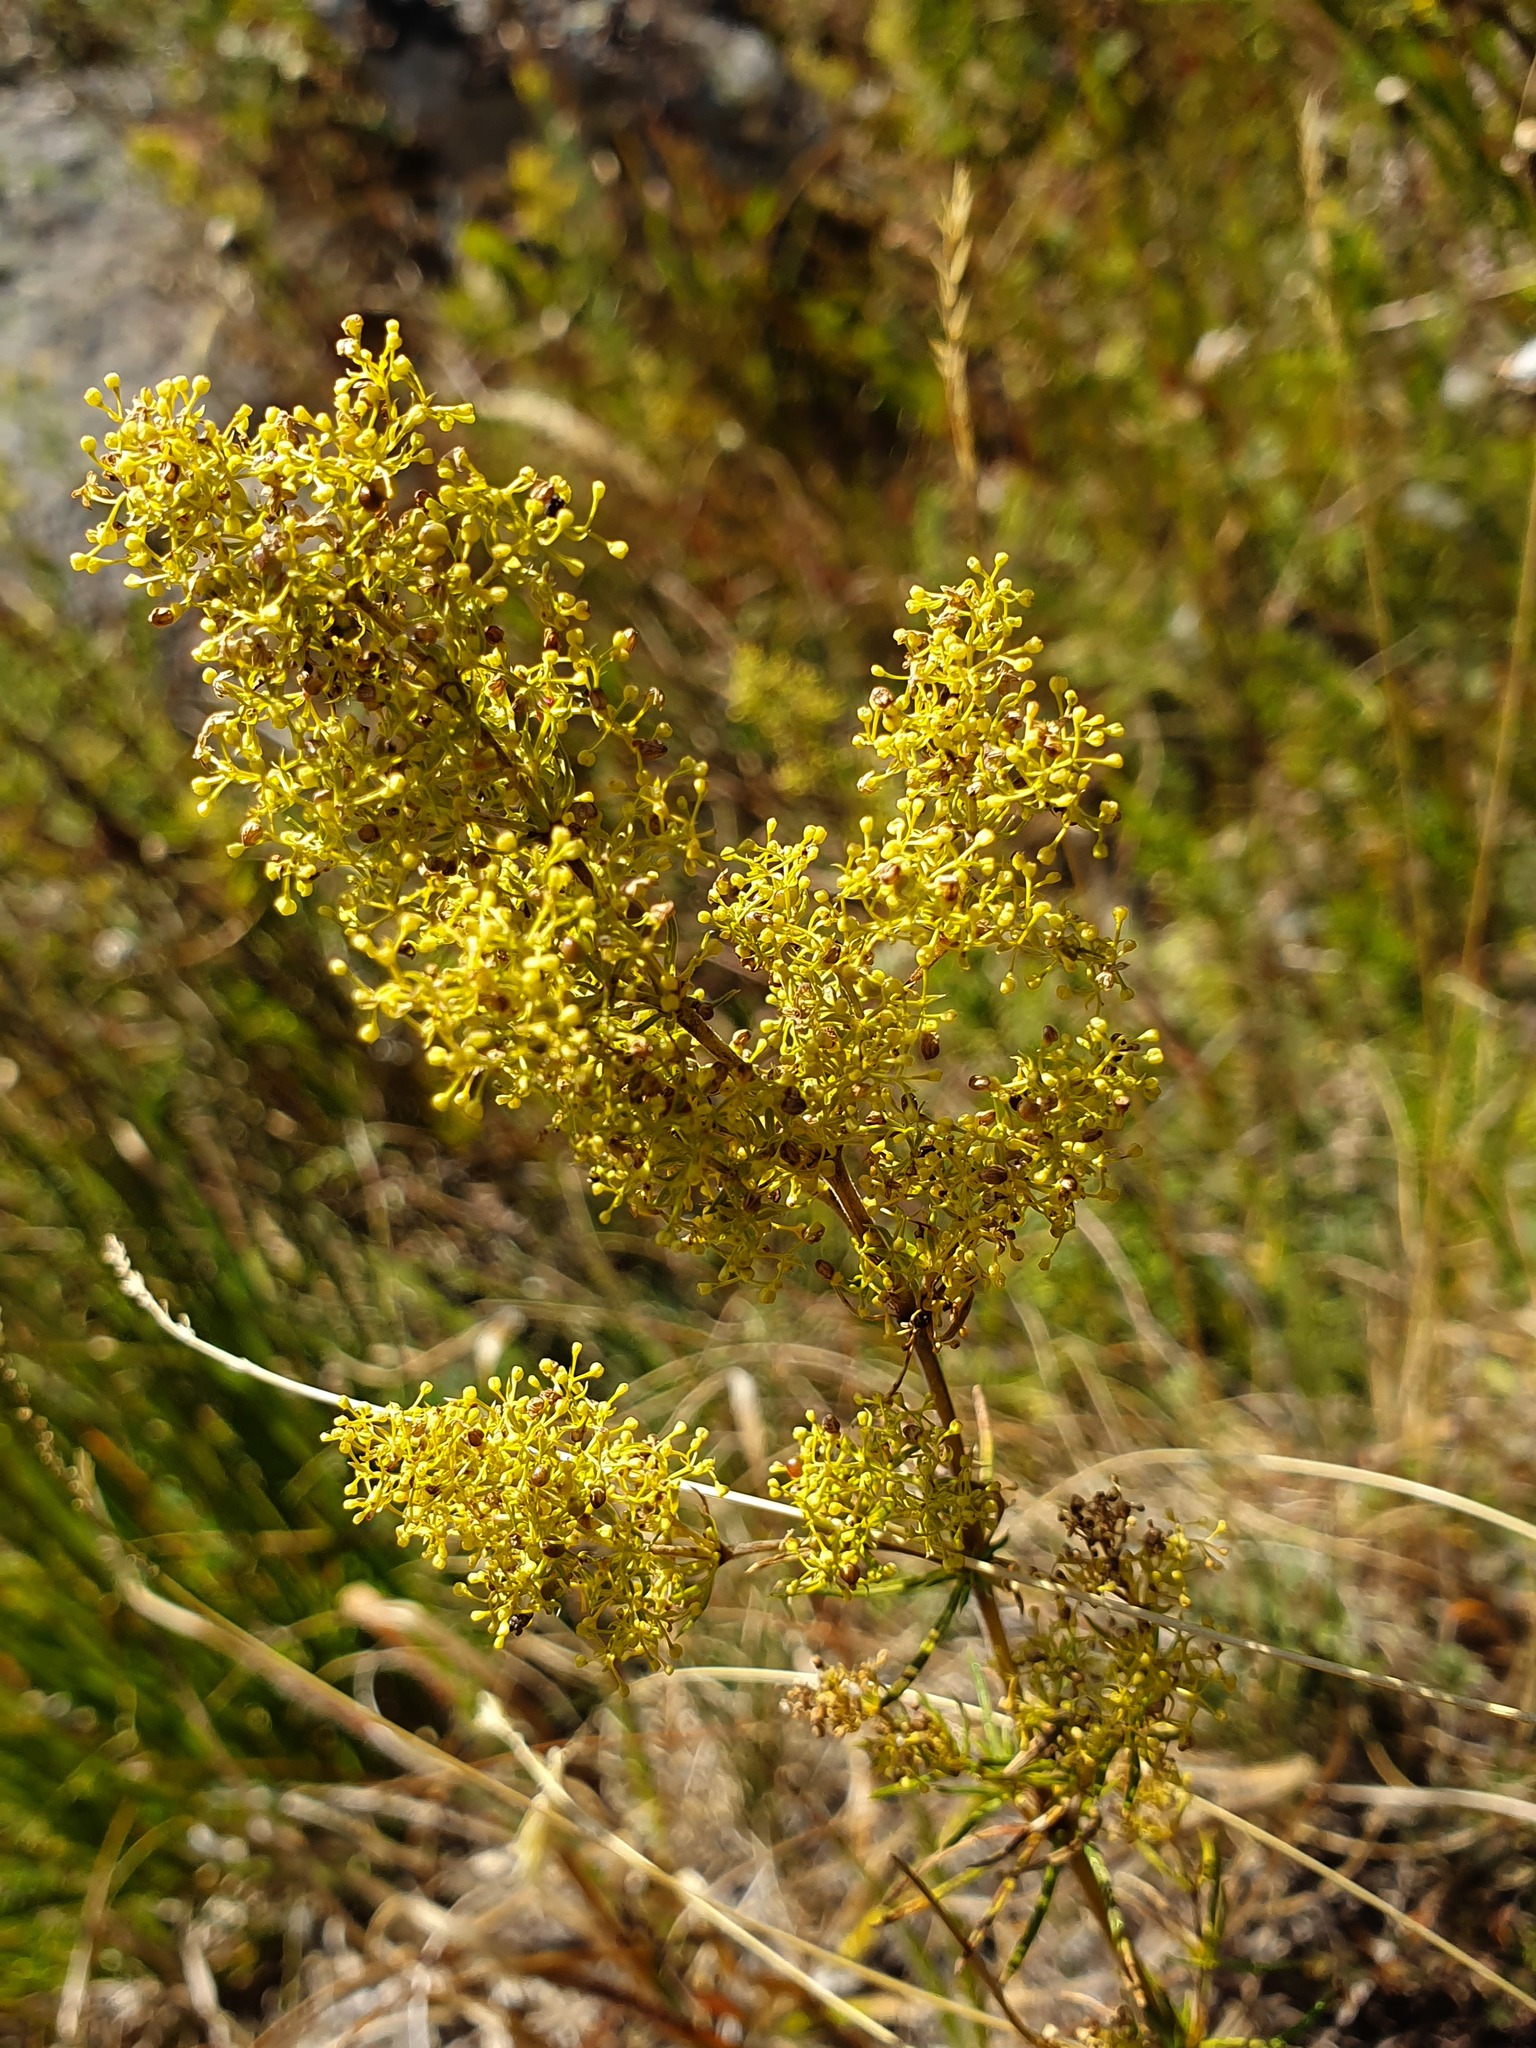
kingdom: Plantae
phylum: Tracheophyta
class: Magnoliopsida
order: Gentianales
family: Rubiaceae
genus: Galium
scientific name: Galium verum
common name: Lady's bedstraw
